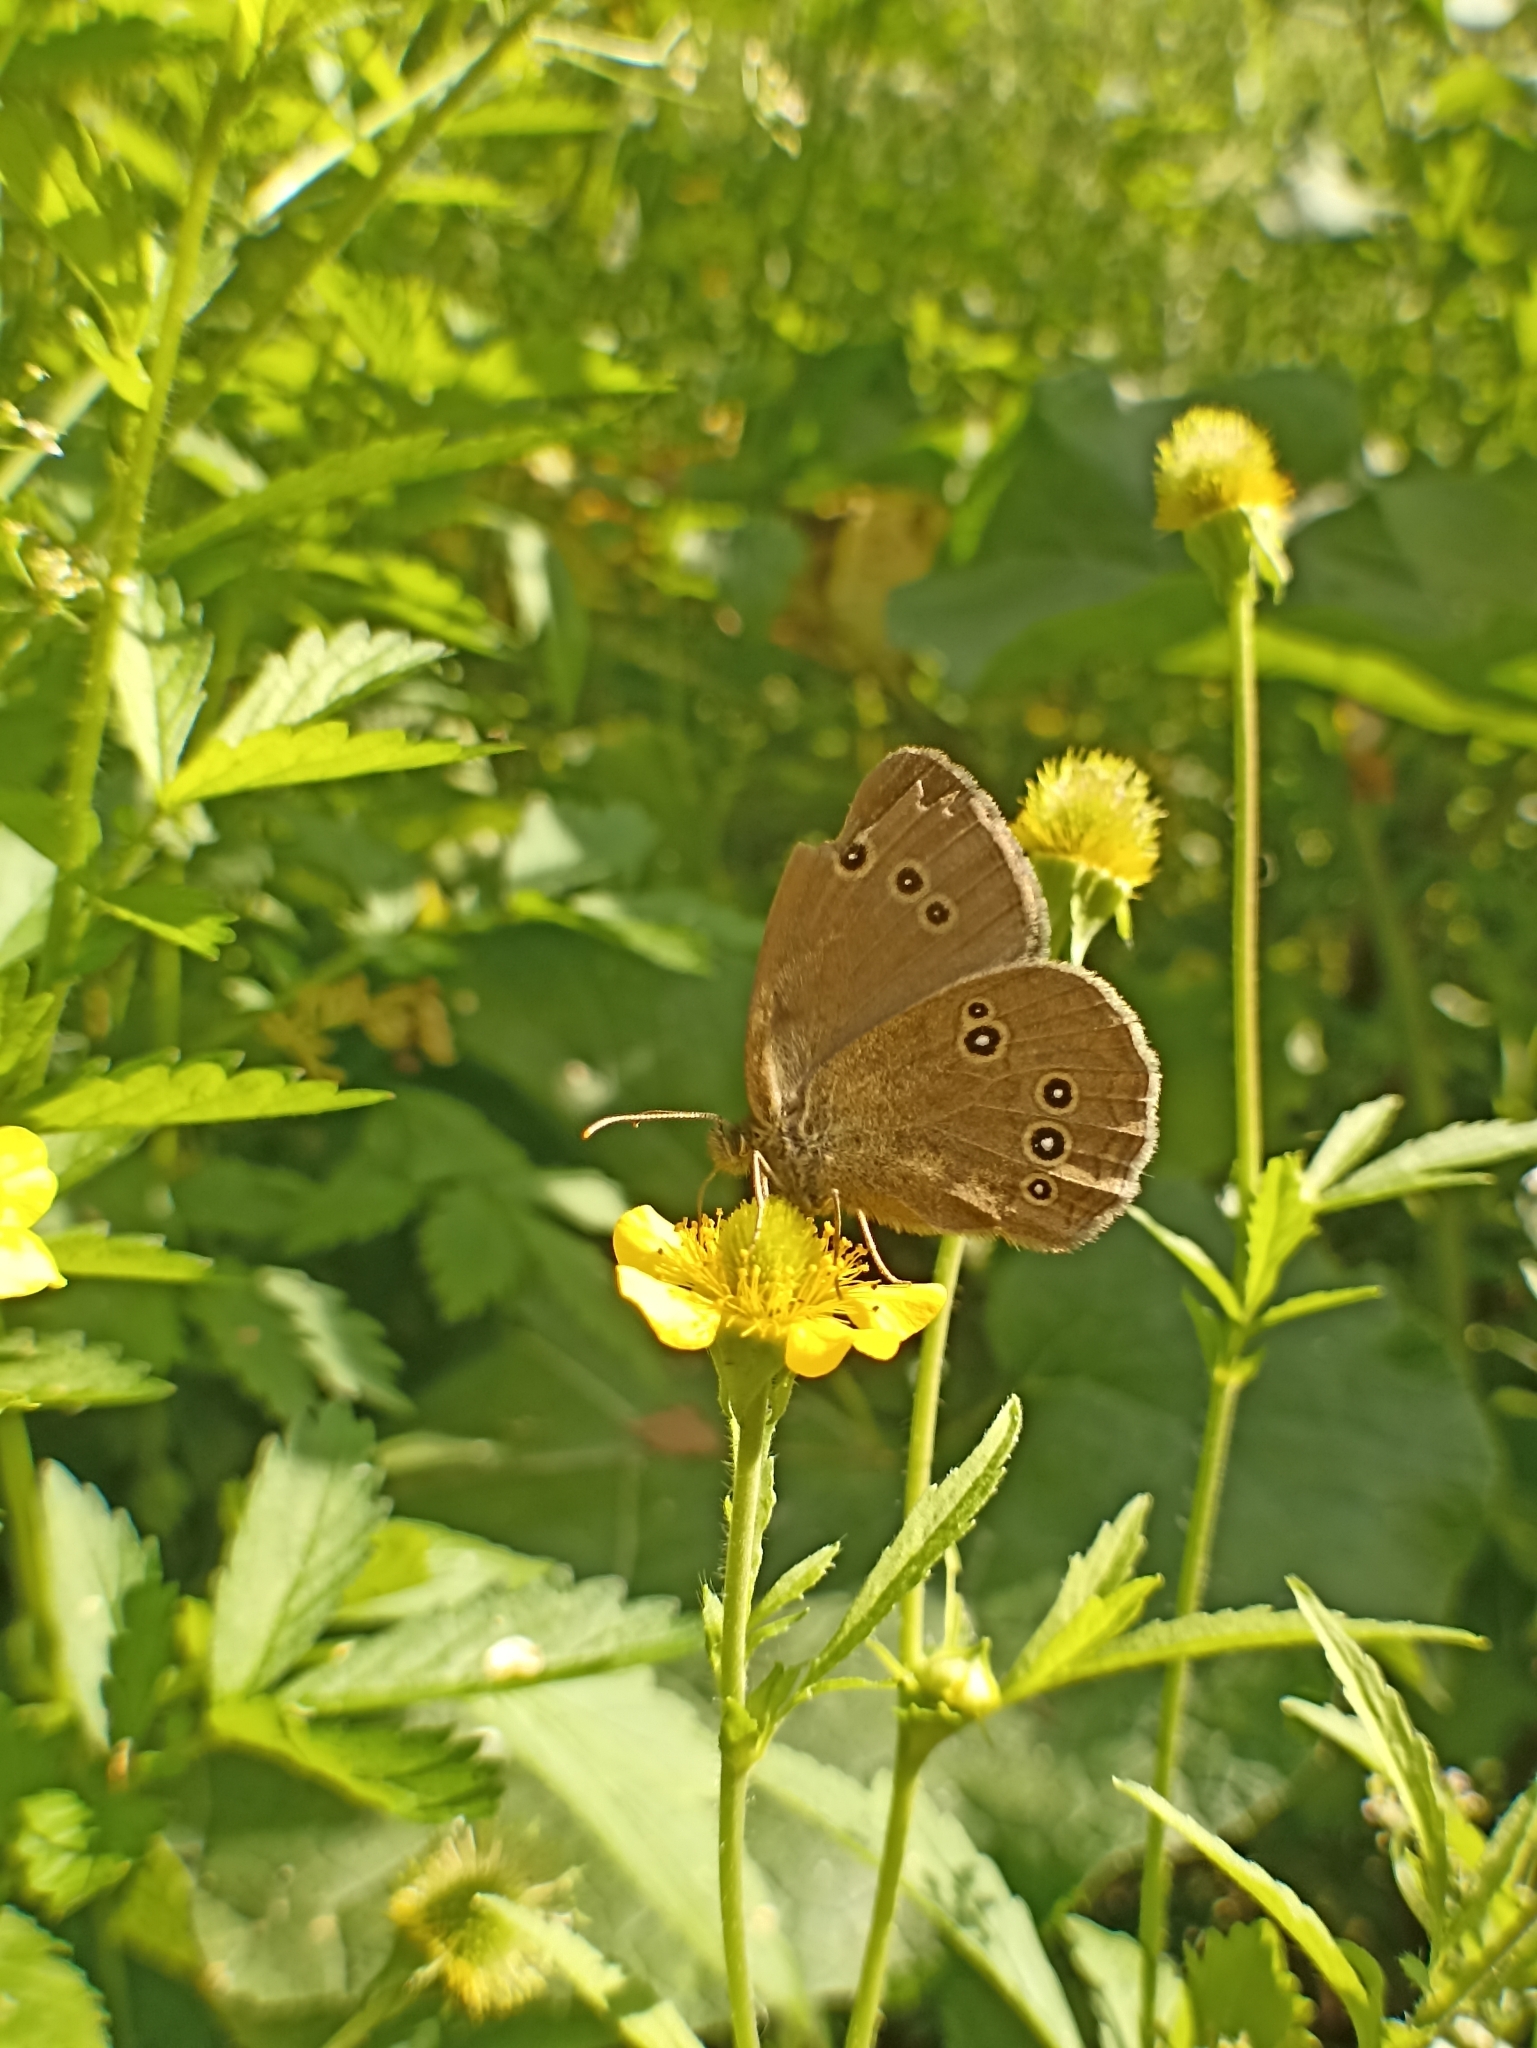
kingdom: Animalia
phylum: Arthropoda
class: Insecta
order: Lepidoptera
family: Nymphalidae
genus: Aphantopus
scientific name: Aphantopus hyperantus
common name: Ringlet
